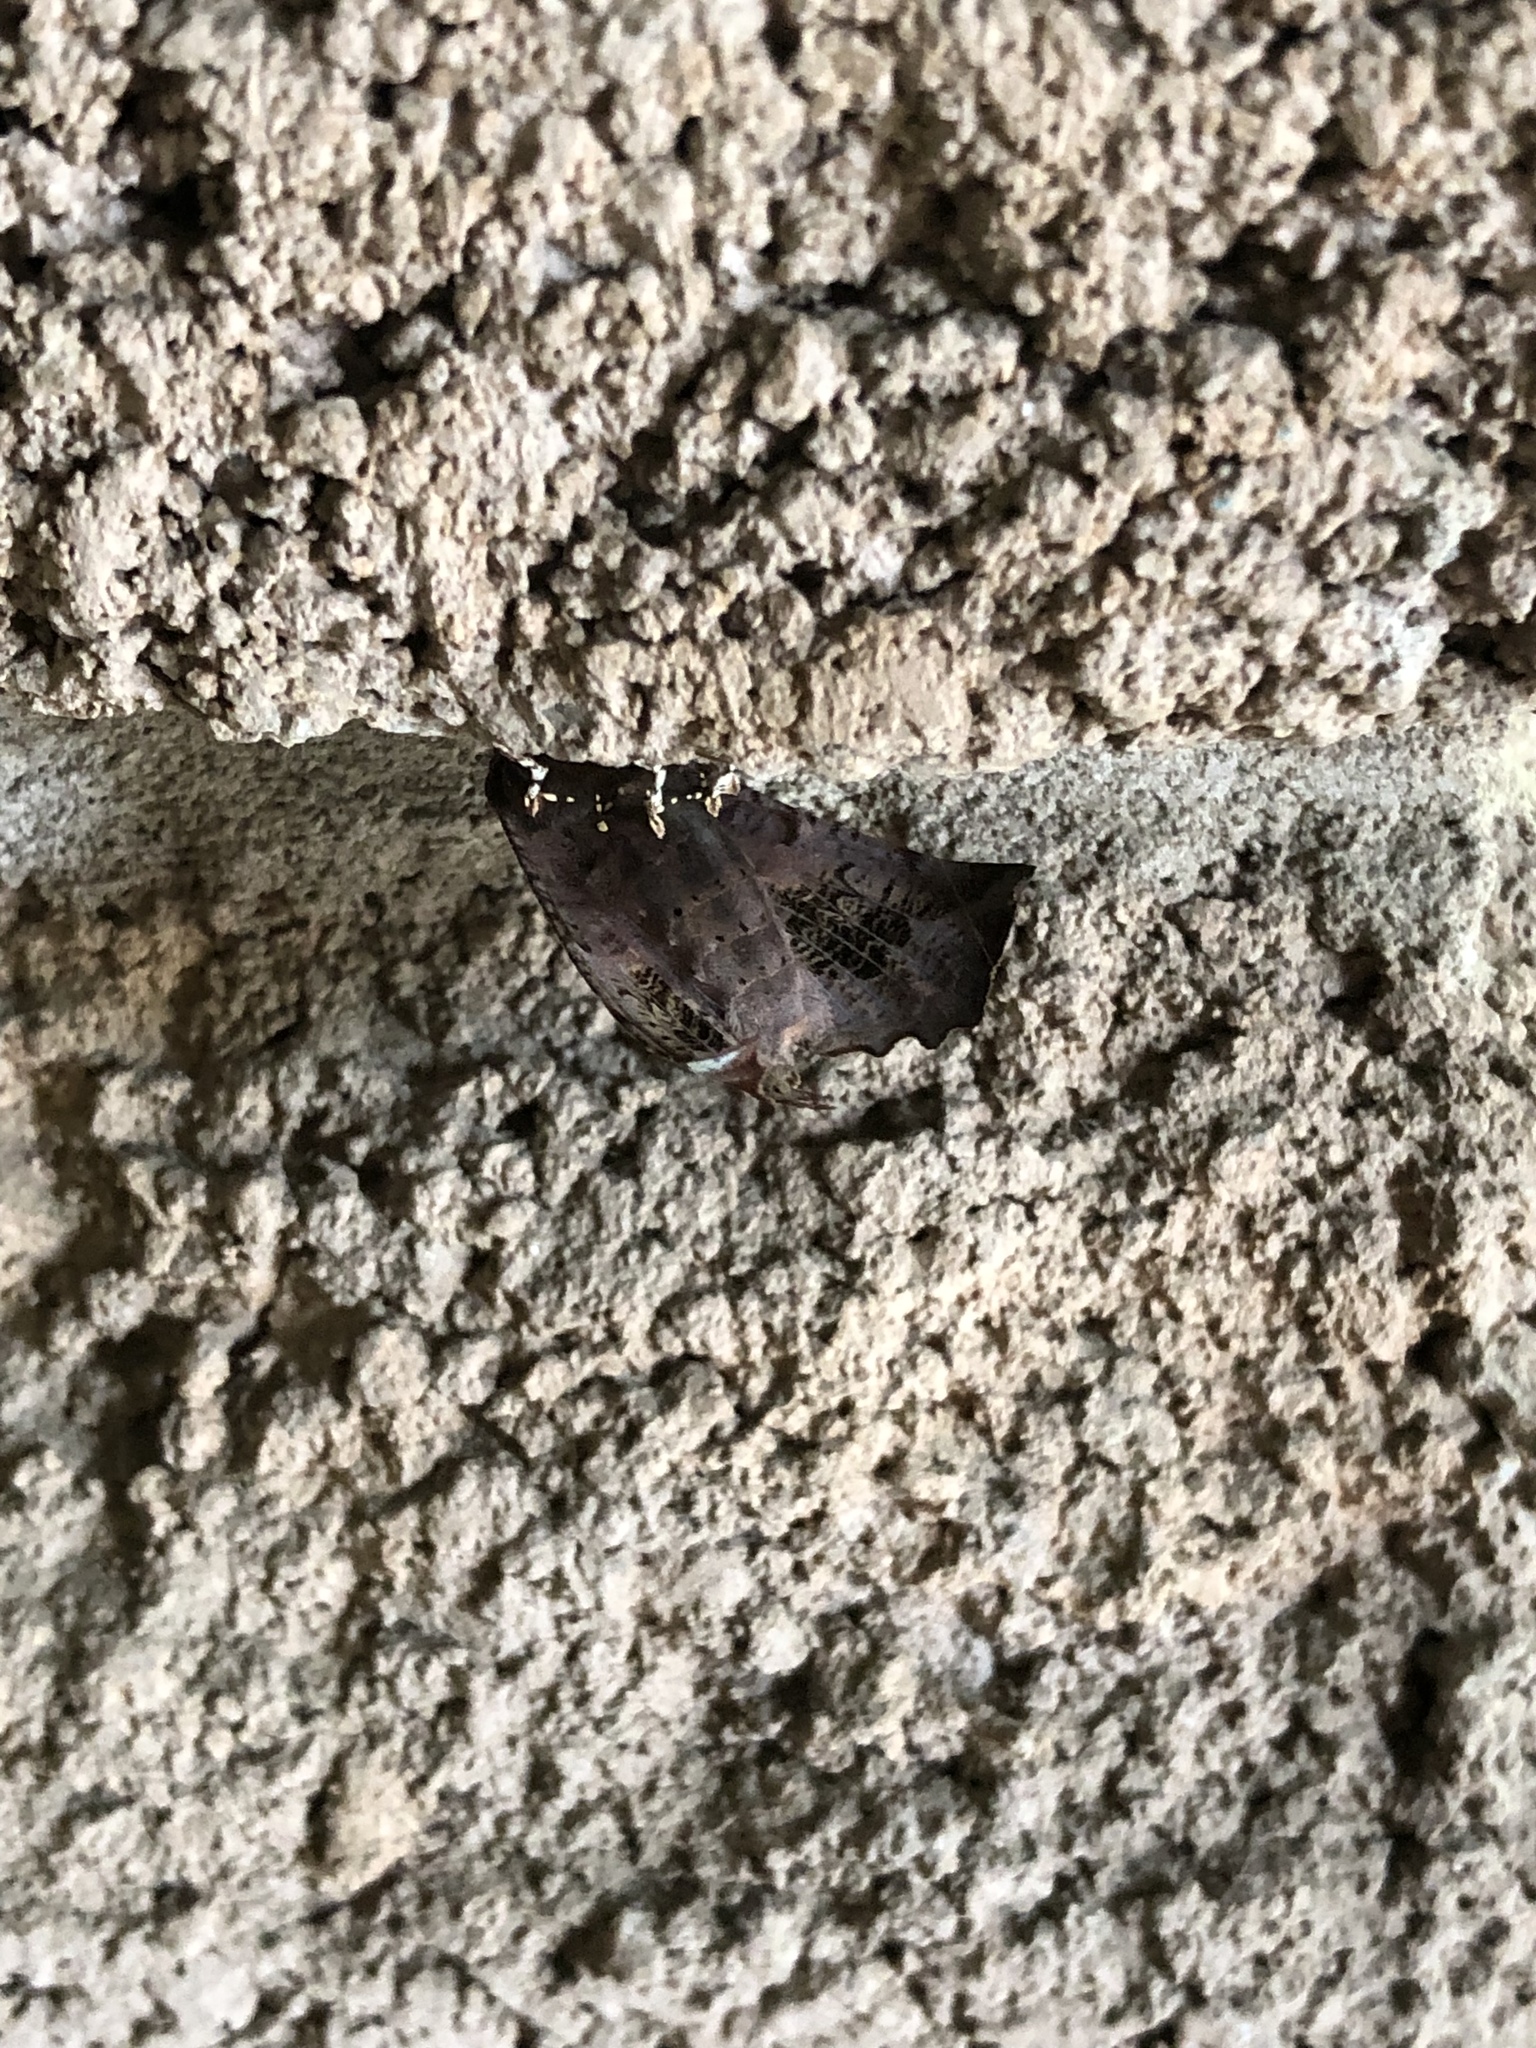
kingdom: Animalia
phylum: Arthropoda
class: Insecta
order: Lepidoptera
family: Erebidae
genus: Scoliopteryx
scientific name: Scoliopteryx libatrix
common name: Herald
